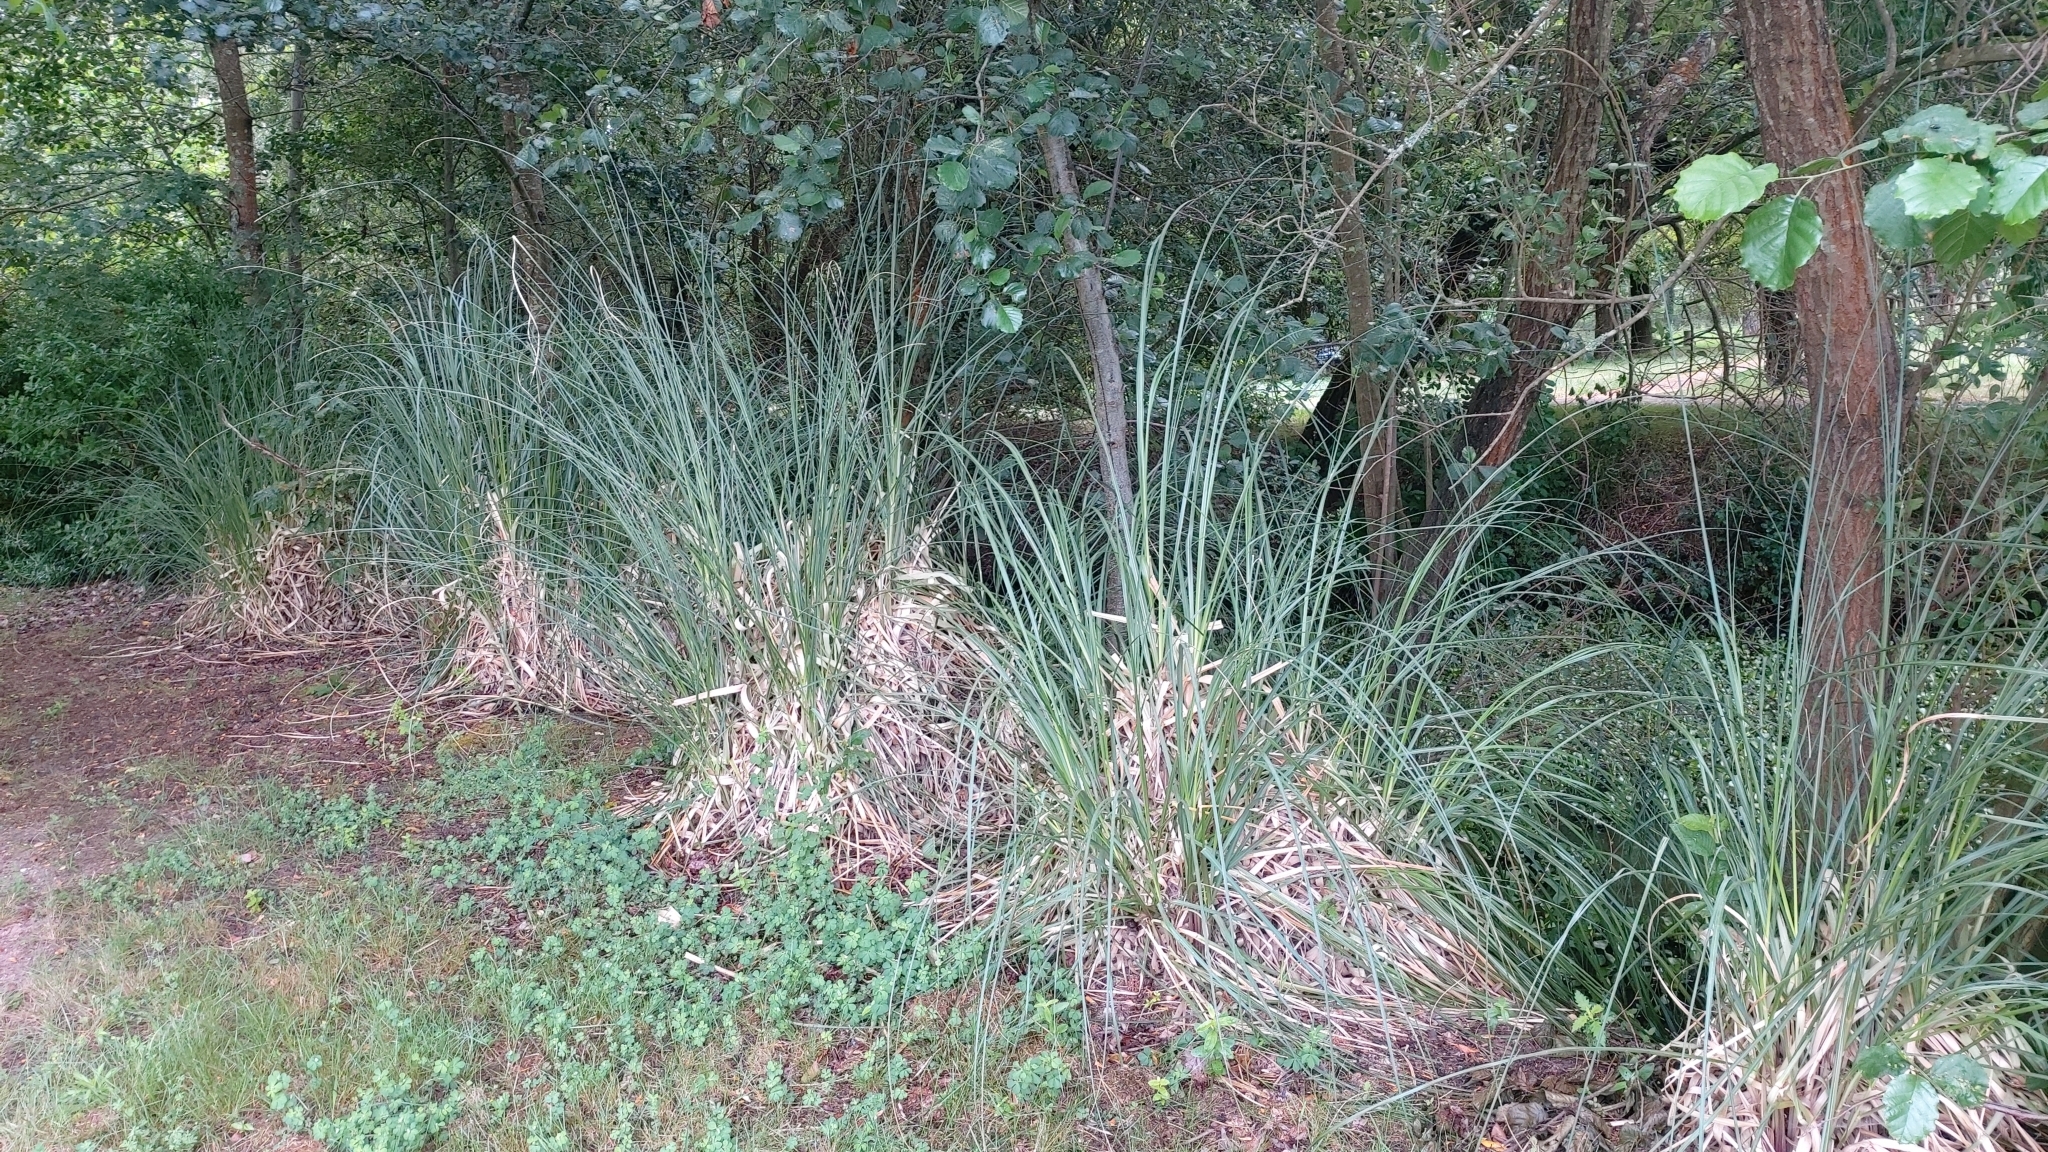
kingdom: Plantae
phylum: Tracheophyta
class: Liliopsida
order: Poales
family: Poaceae
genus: Cortaderia
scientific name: Cortaderia selloana
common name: Uruguayan pampas grass
